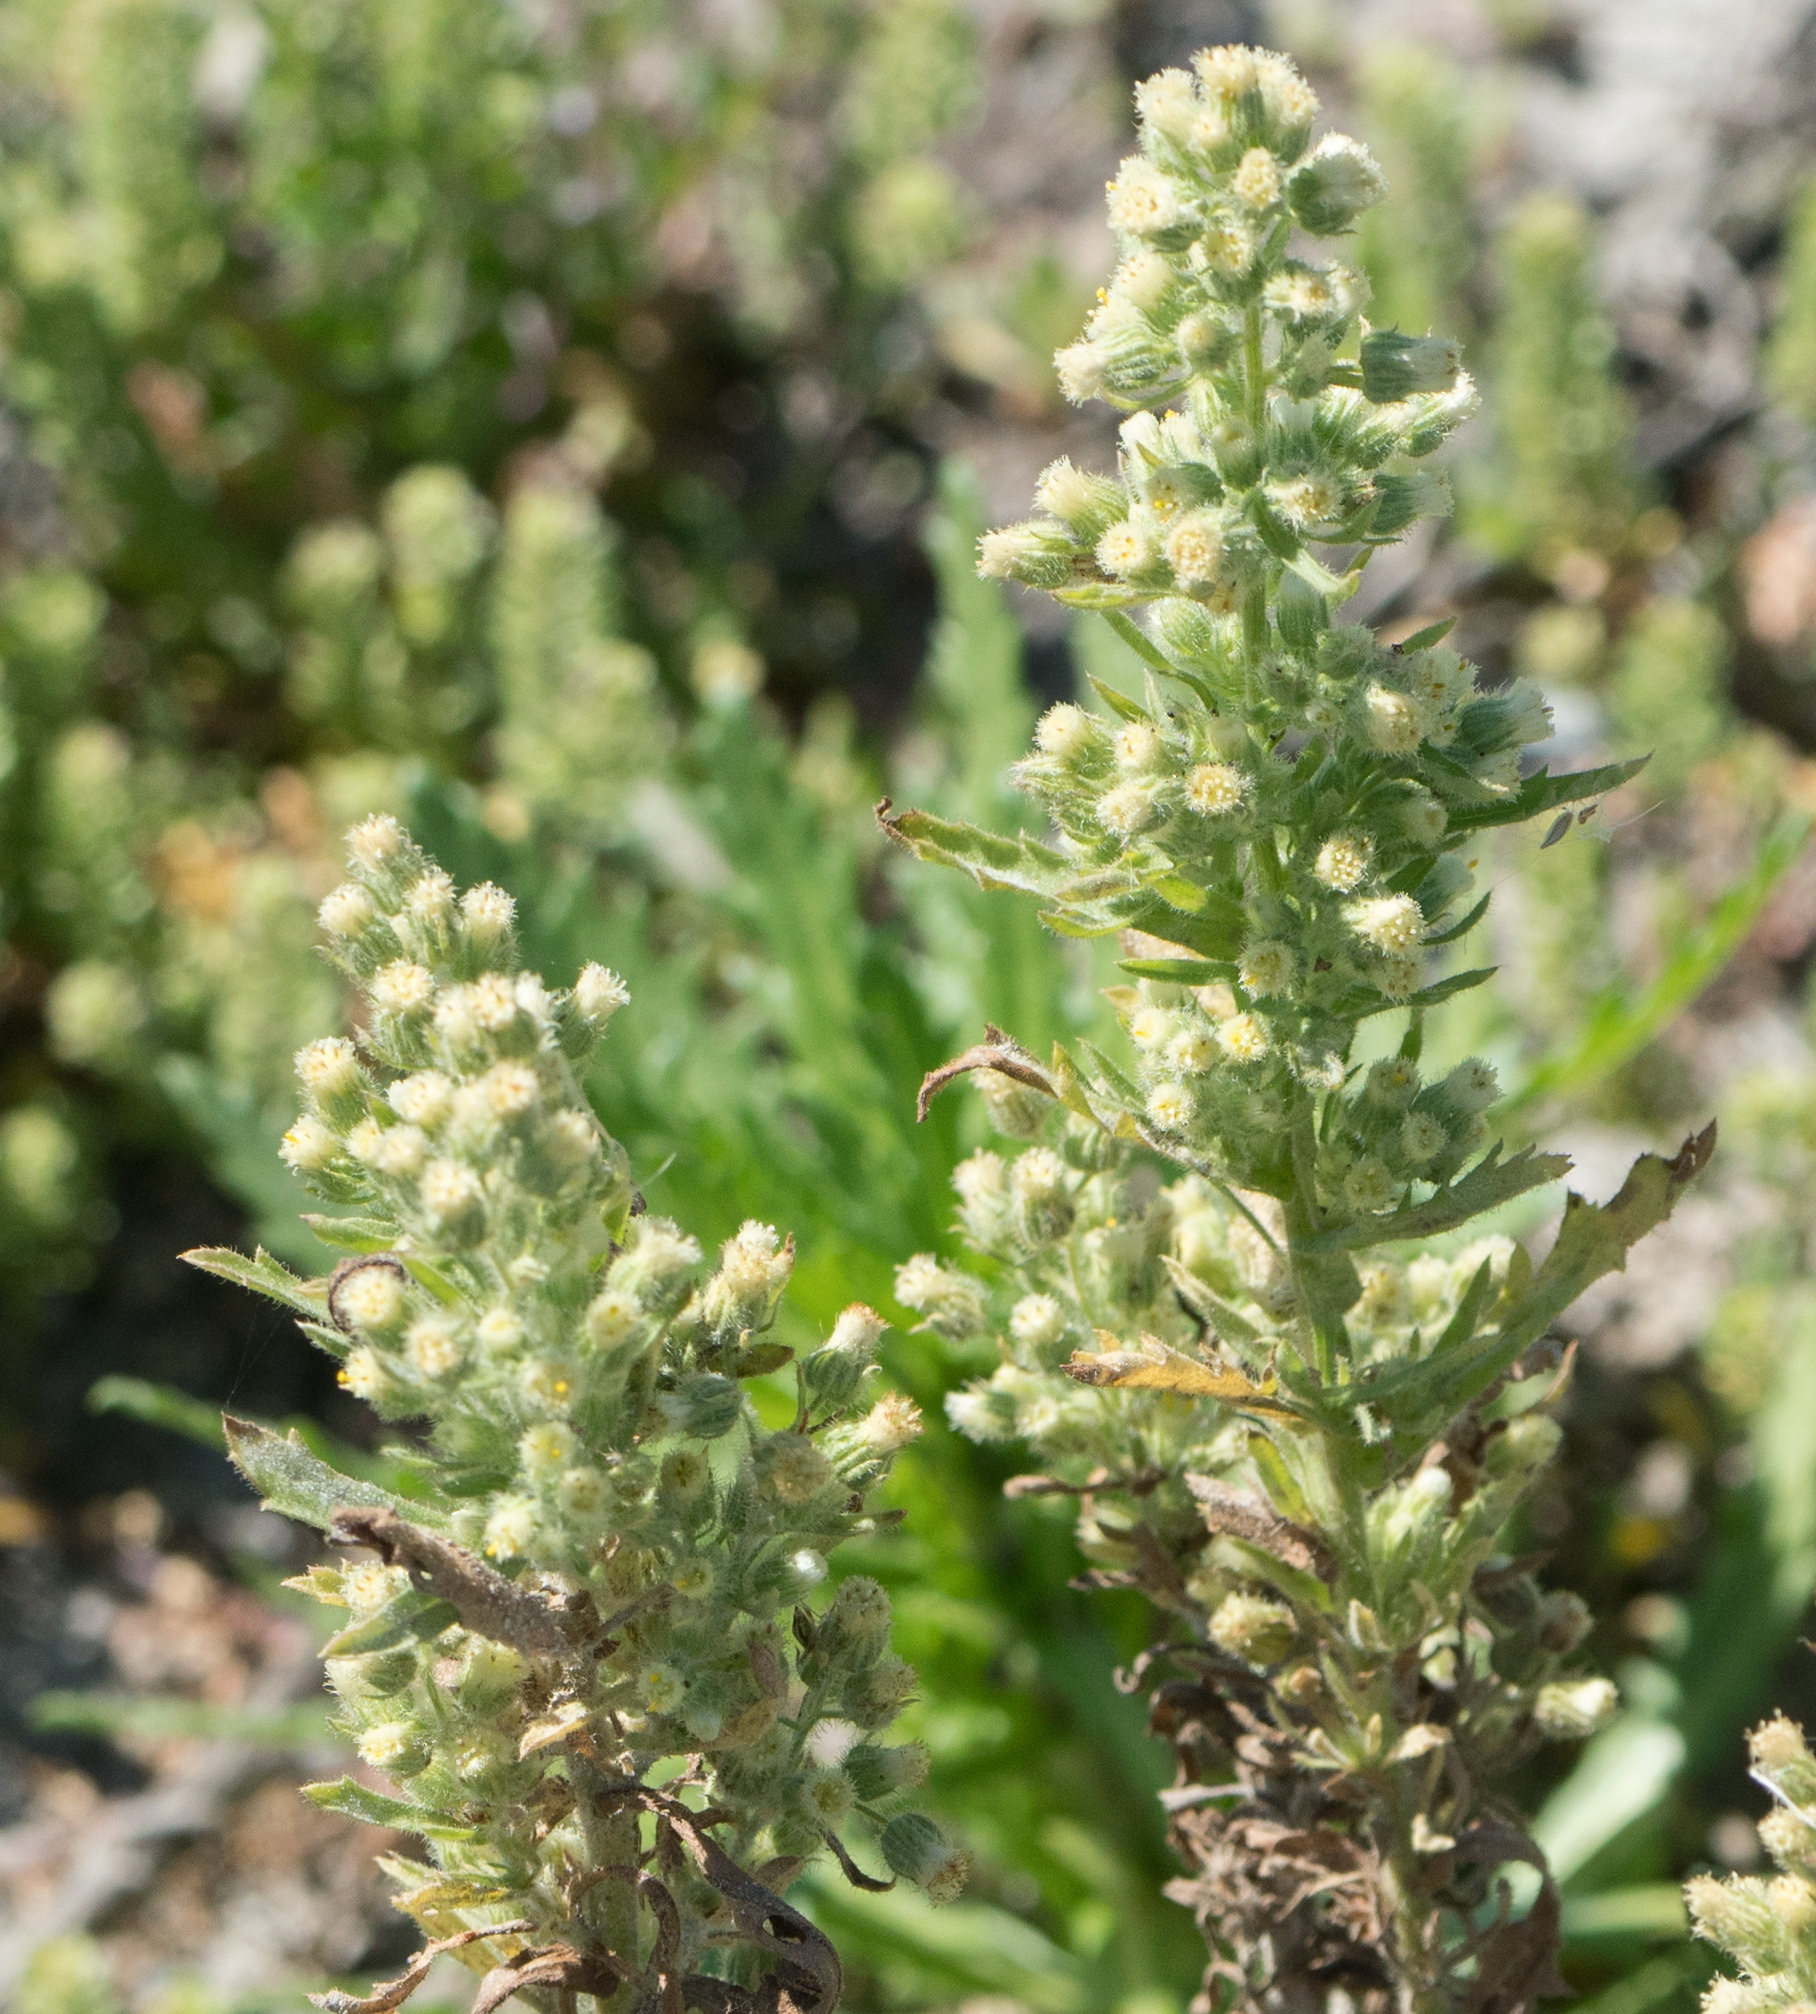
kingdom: Plantae
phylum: Tracheophyta
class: Magnoliopsida
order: Asterales
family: Asteraceae
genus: Laennecia
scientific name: Laennecia coulteri
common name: Coulter's woolwort
